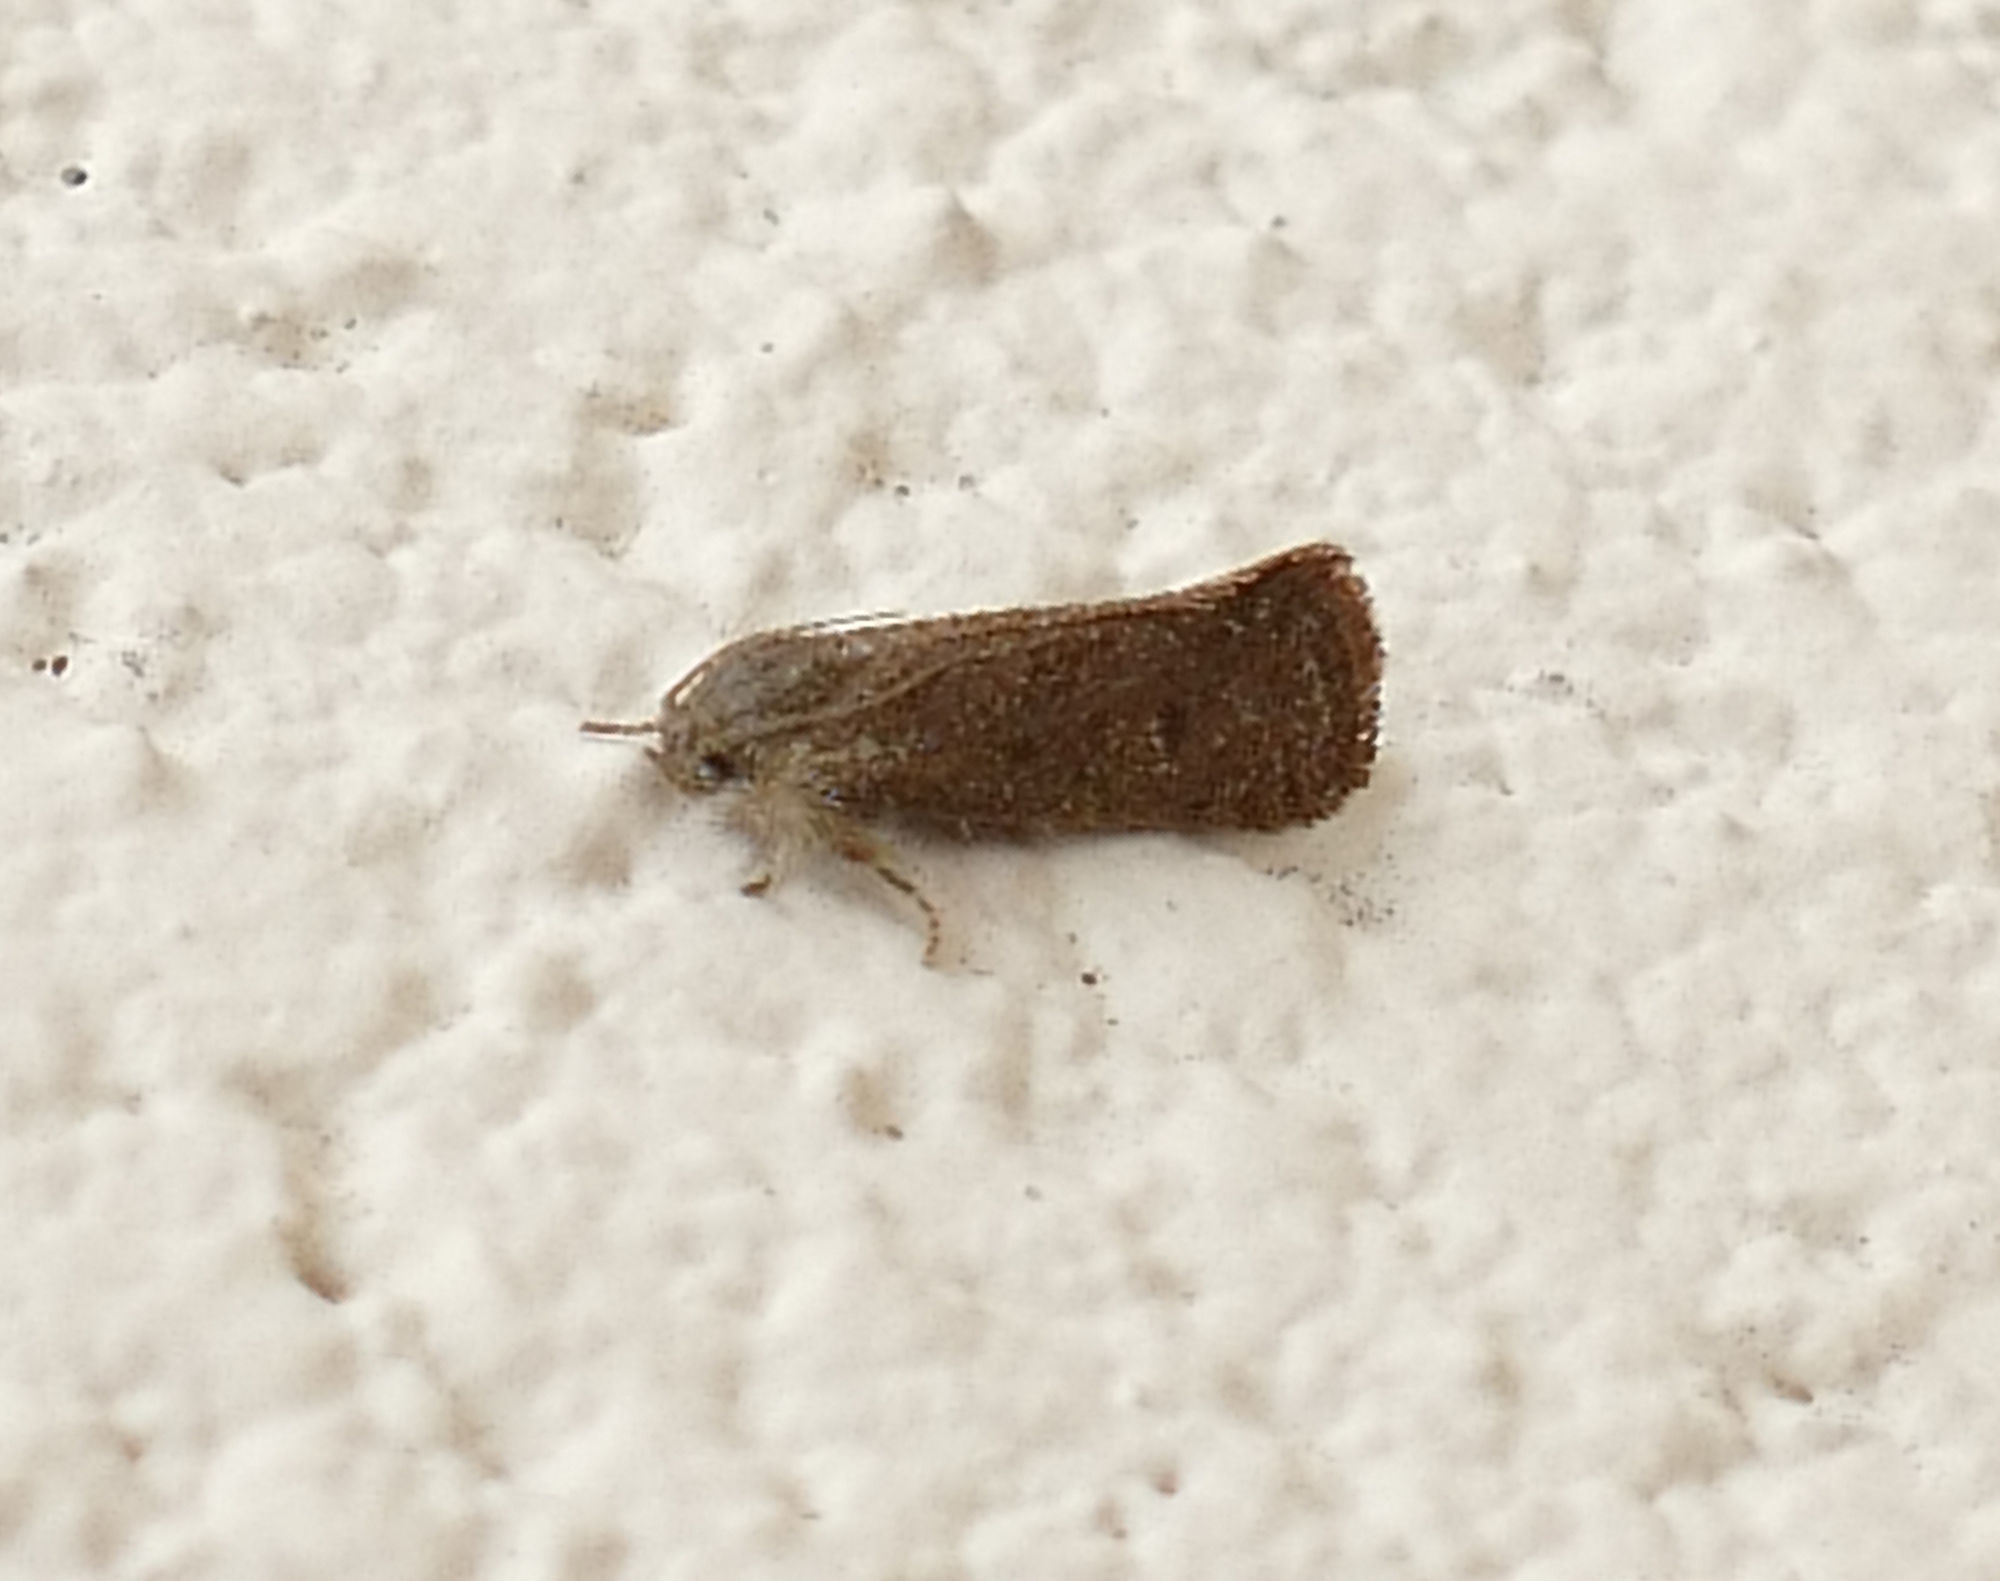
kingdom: Animalia
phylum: Arthropoda
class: Insecta
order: Lepidoptera
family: Tineidae
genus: Acrolophus
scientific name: Acrolophus heppneri
